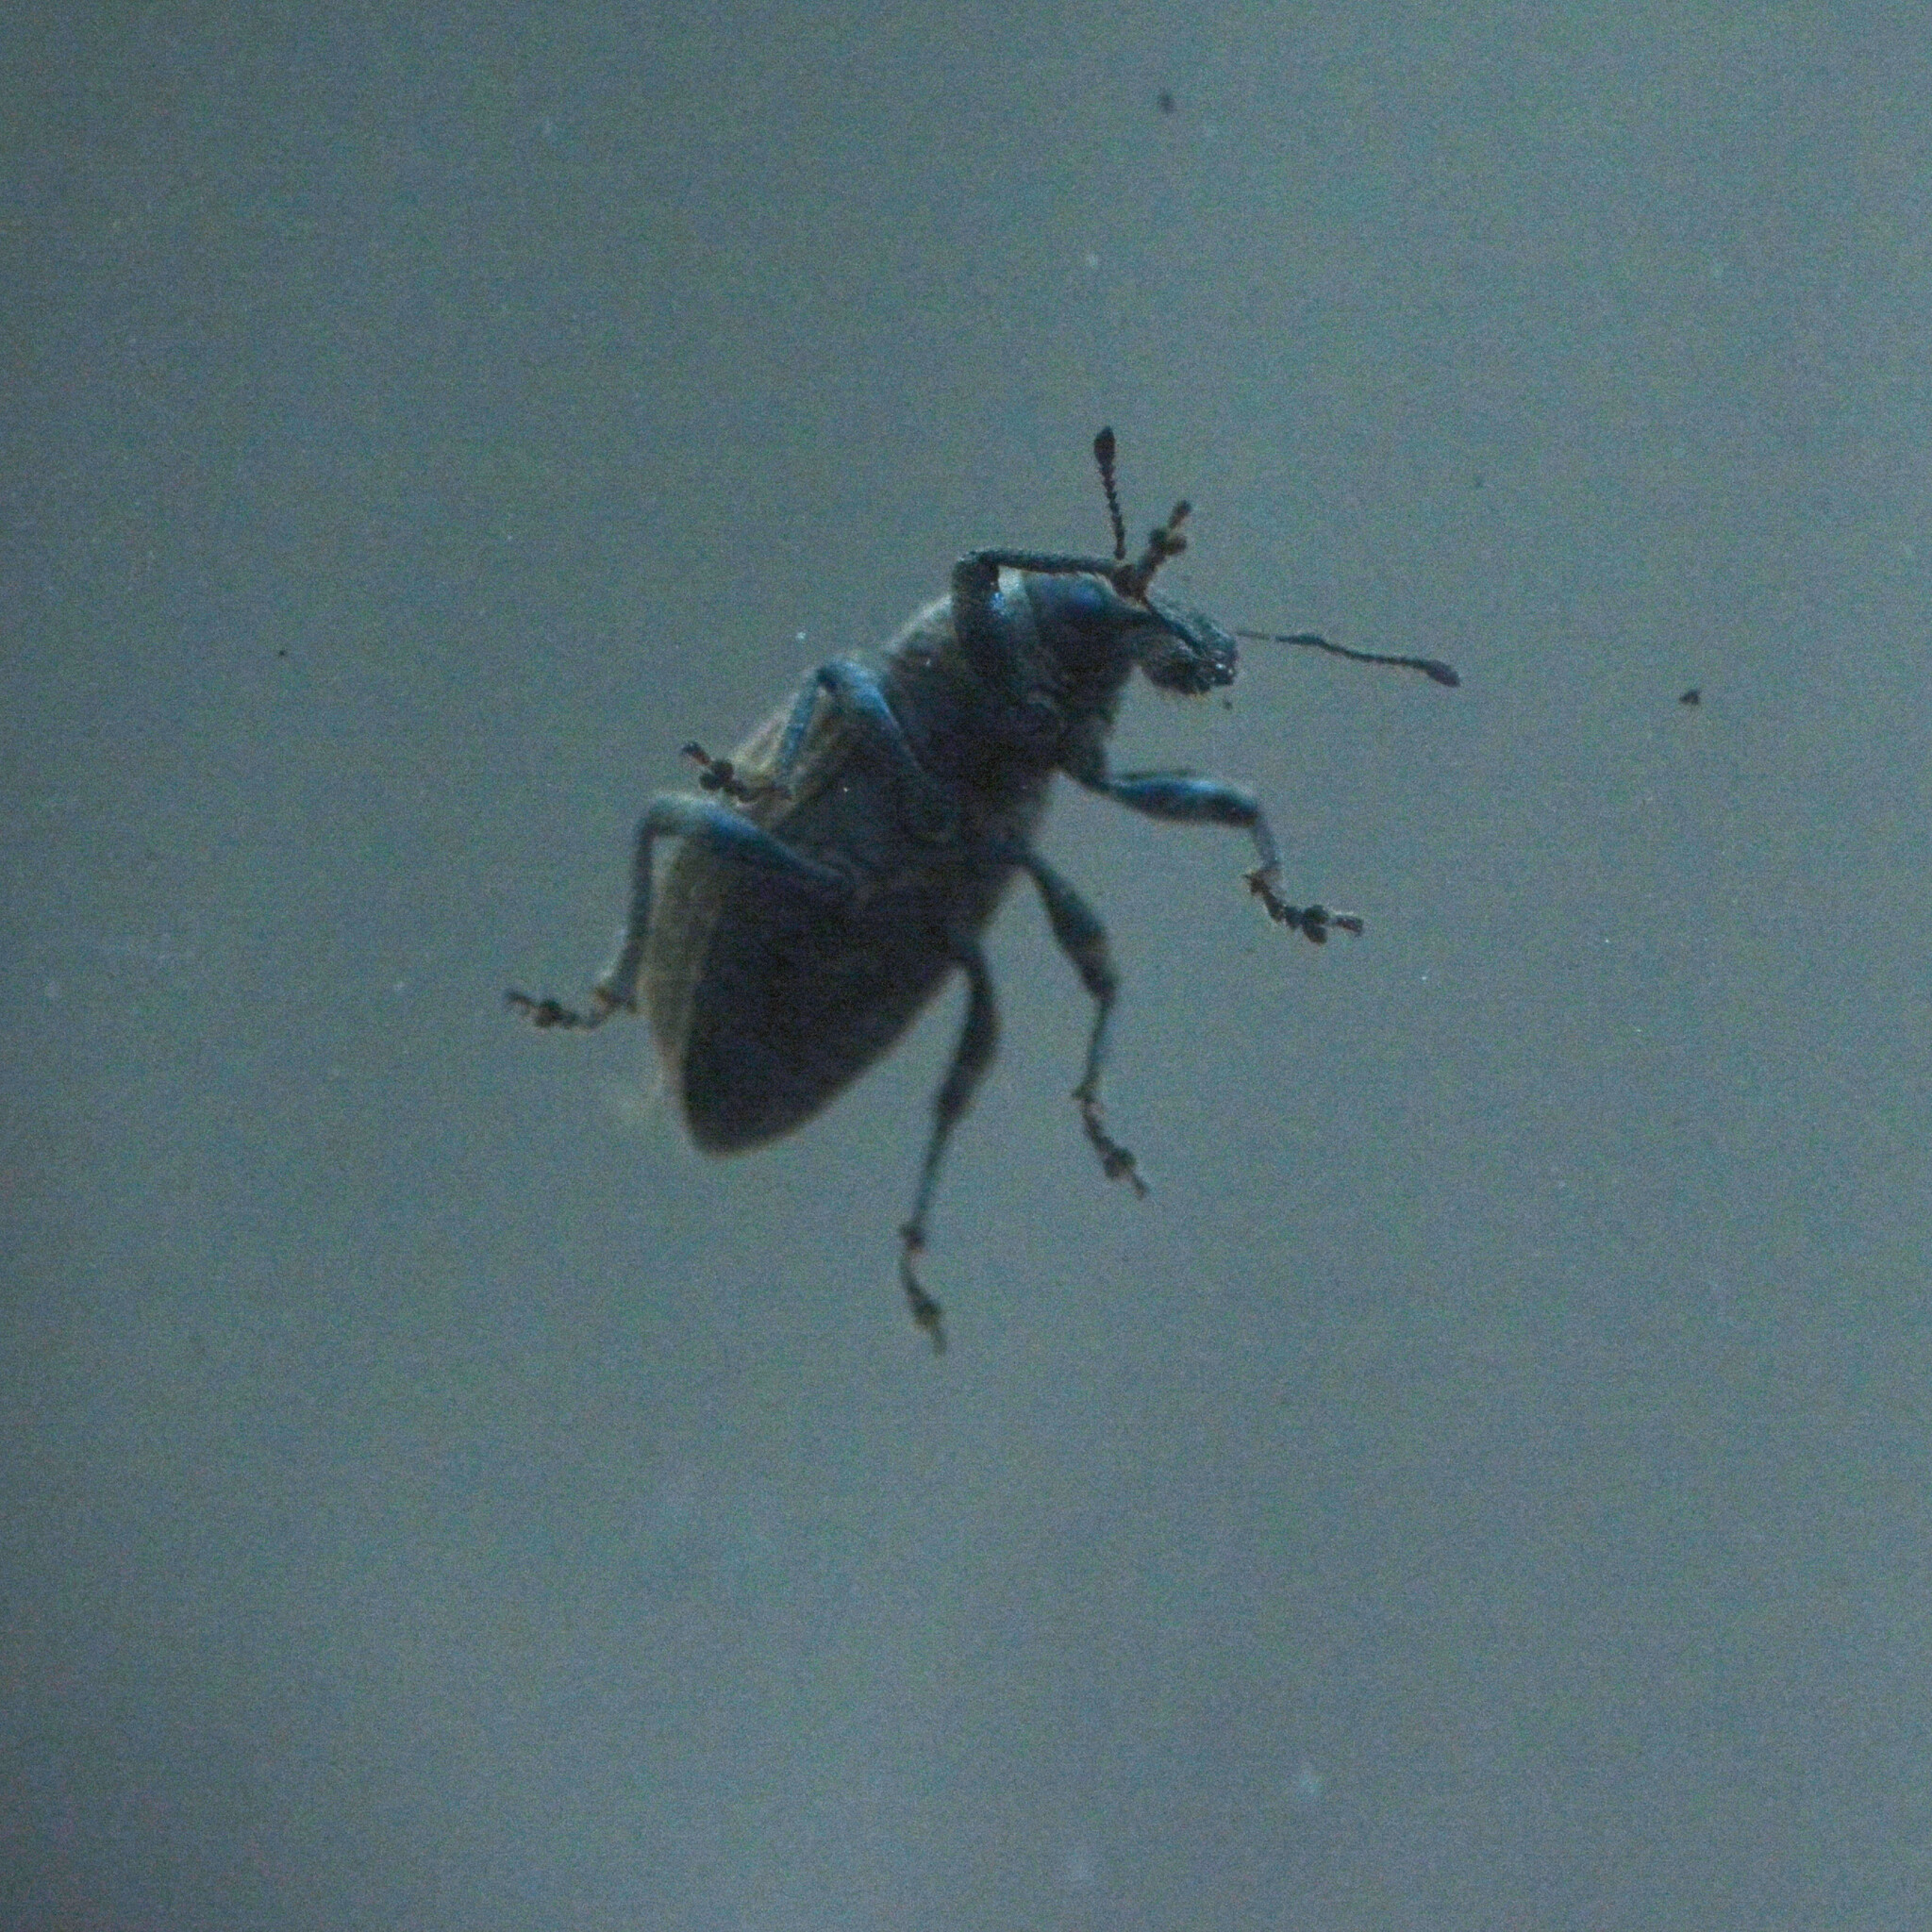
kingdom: Animalia
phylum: Arthropoda
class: Insecta
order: Coleoptera
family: Curculionidae
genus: Barynotus
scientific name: Barynotus obscurus
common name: Weevil
